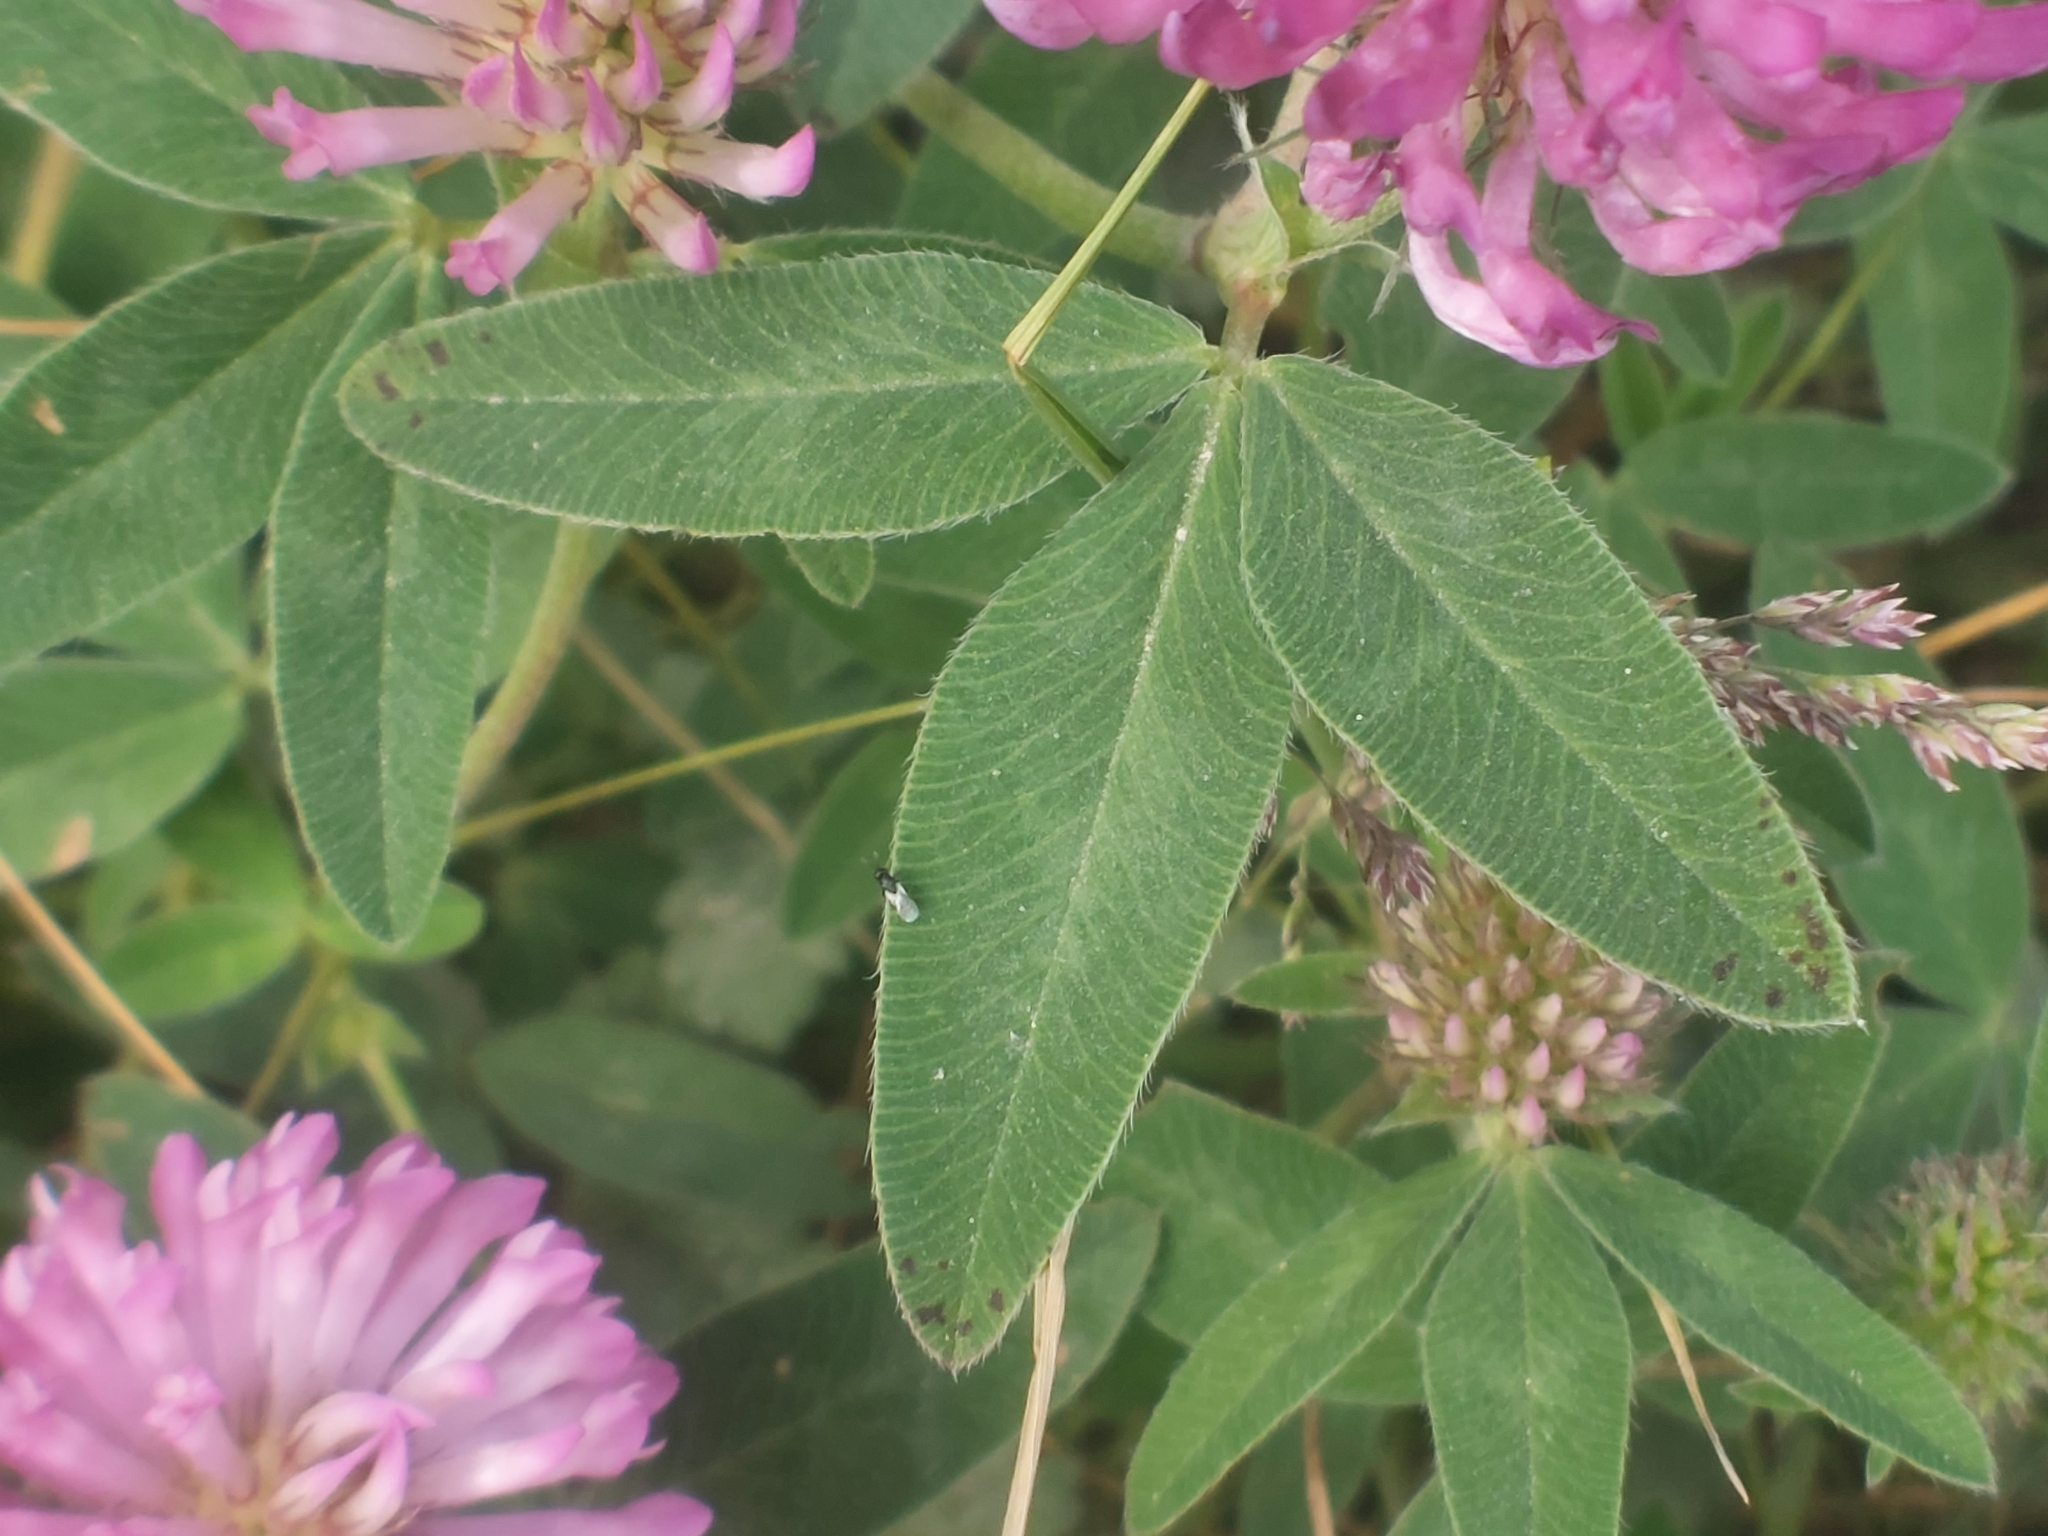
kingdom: Plantae
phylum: Tracheophyta
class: Magnoliopsida
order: Fabales
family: Fabaceae
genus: Trifolium
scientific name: Trifolium medium
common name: Zigzag clover
